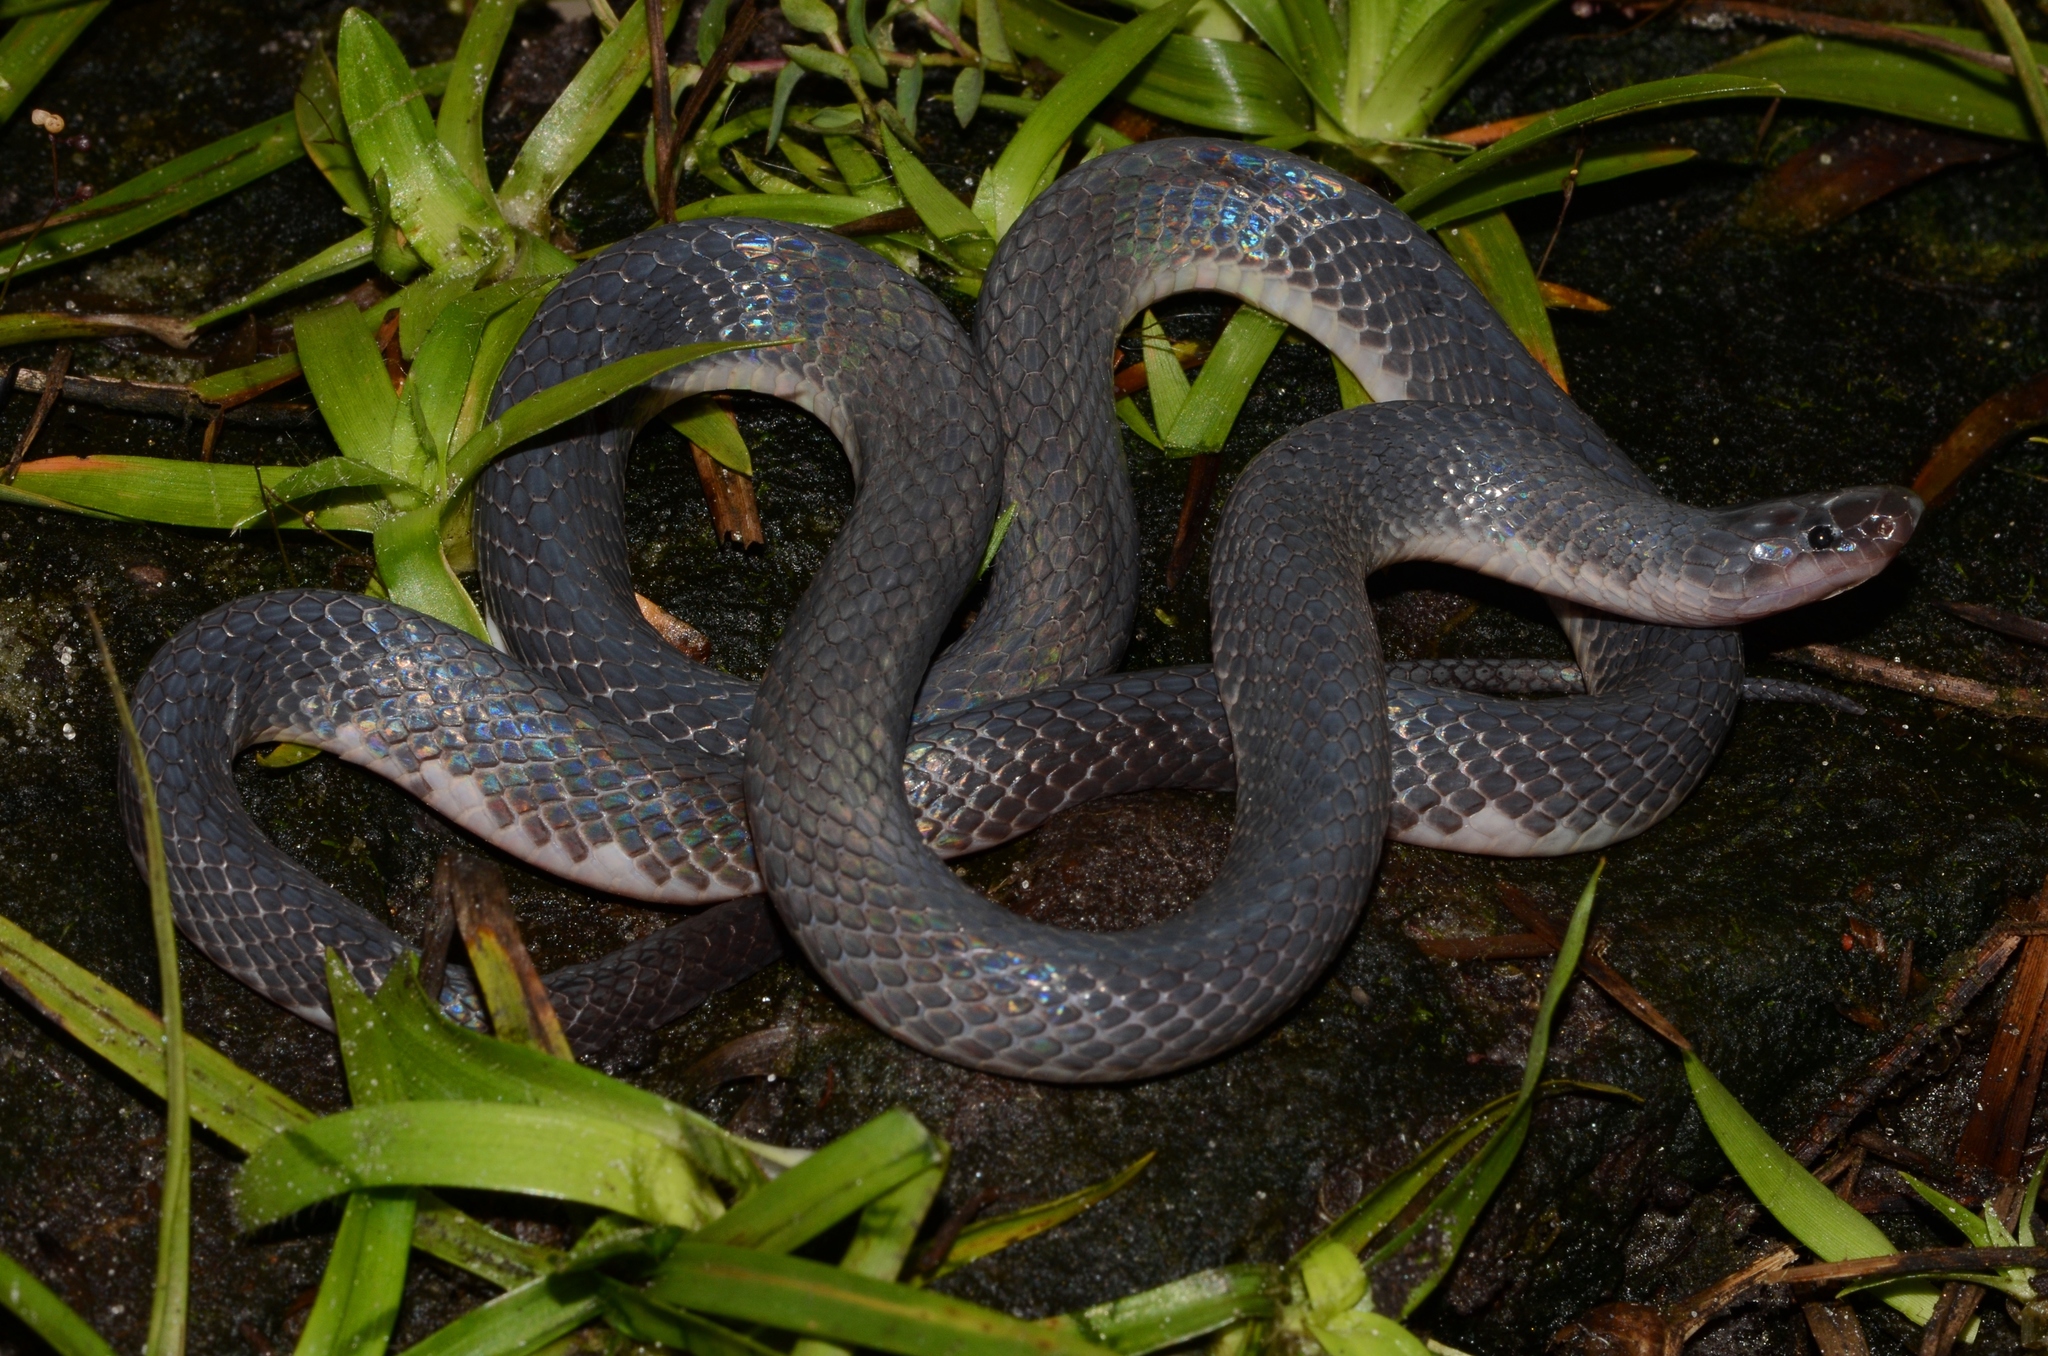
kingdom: Animalia
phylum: Chordata
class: Squamata
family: Lamprophiidae
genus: Mehelya
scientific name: Mehelya stenophthalmus
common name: Small-eyed file snake
